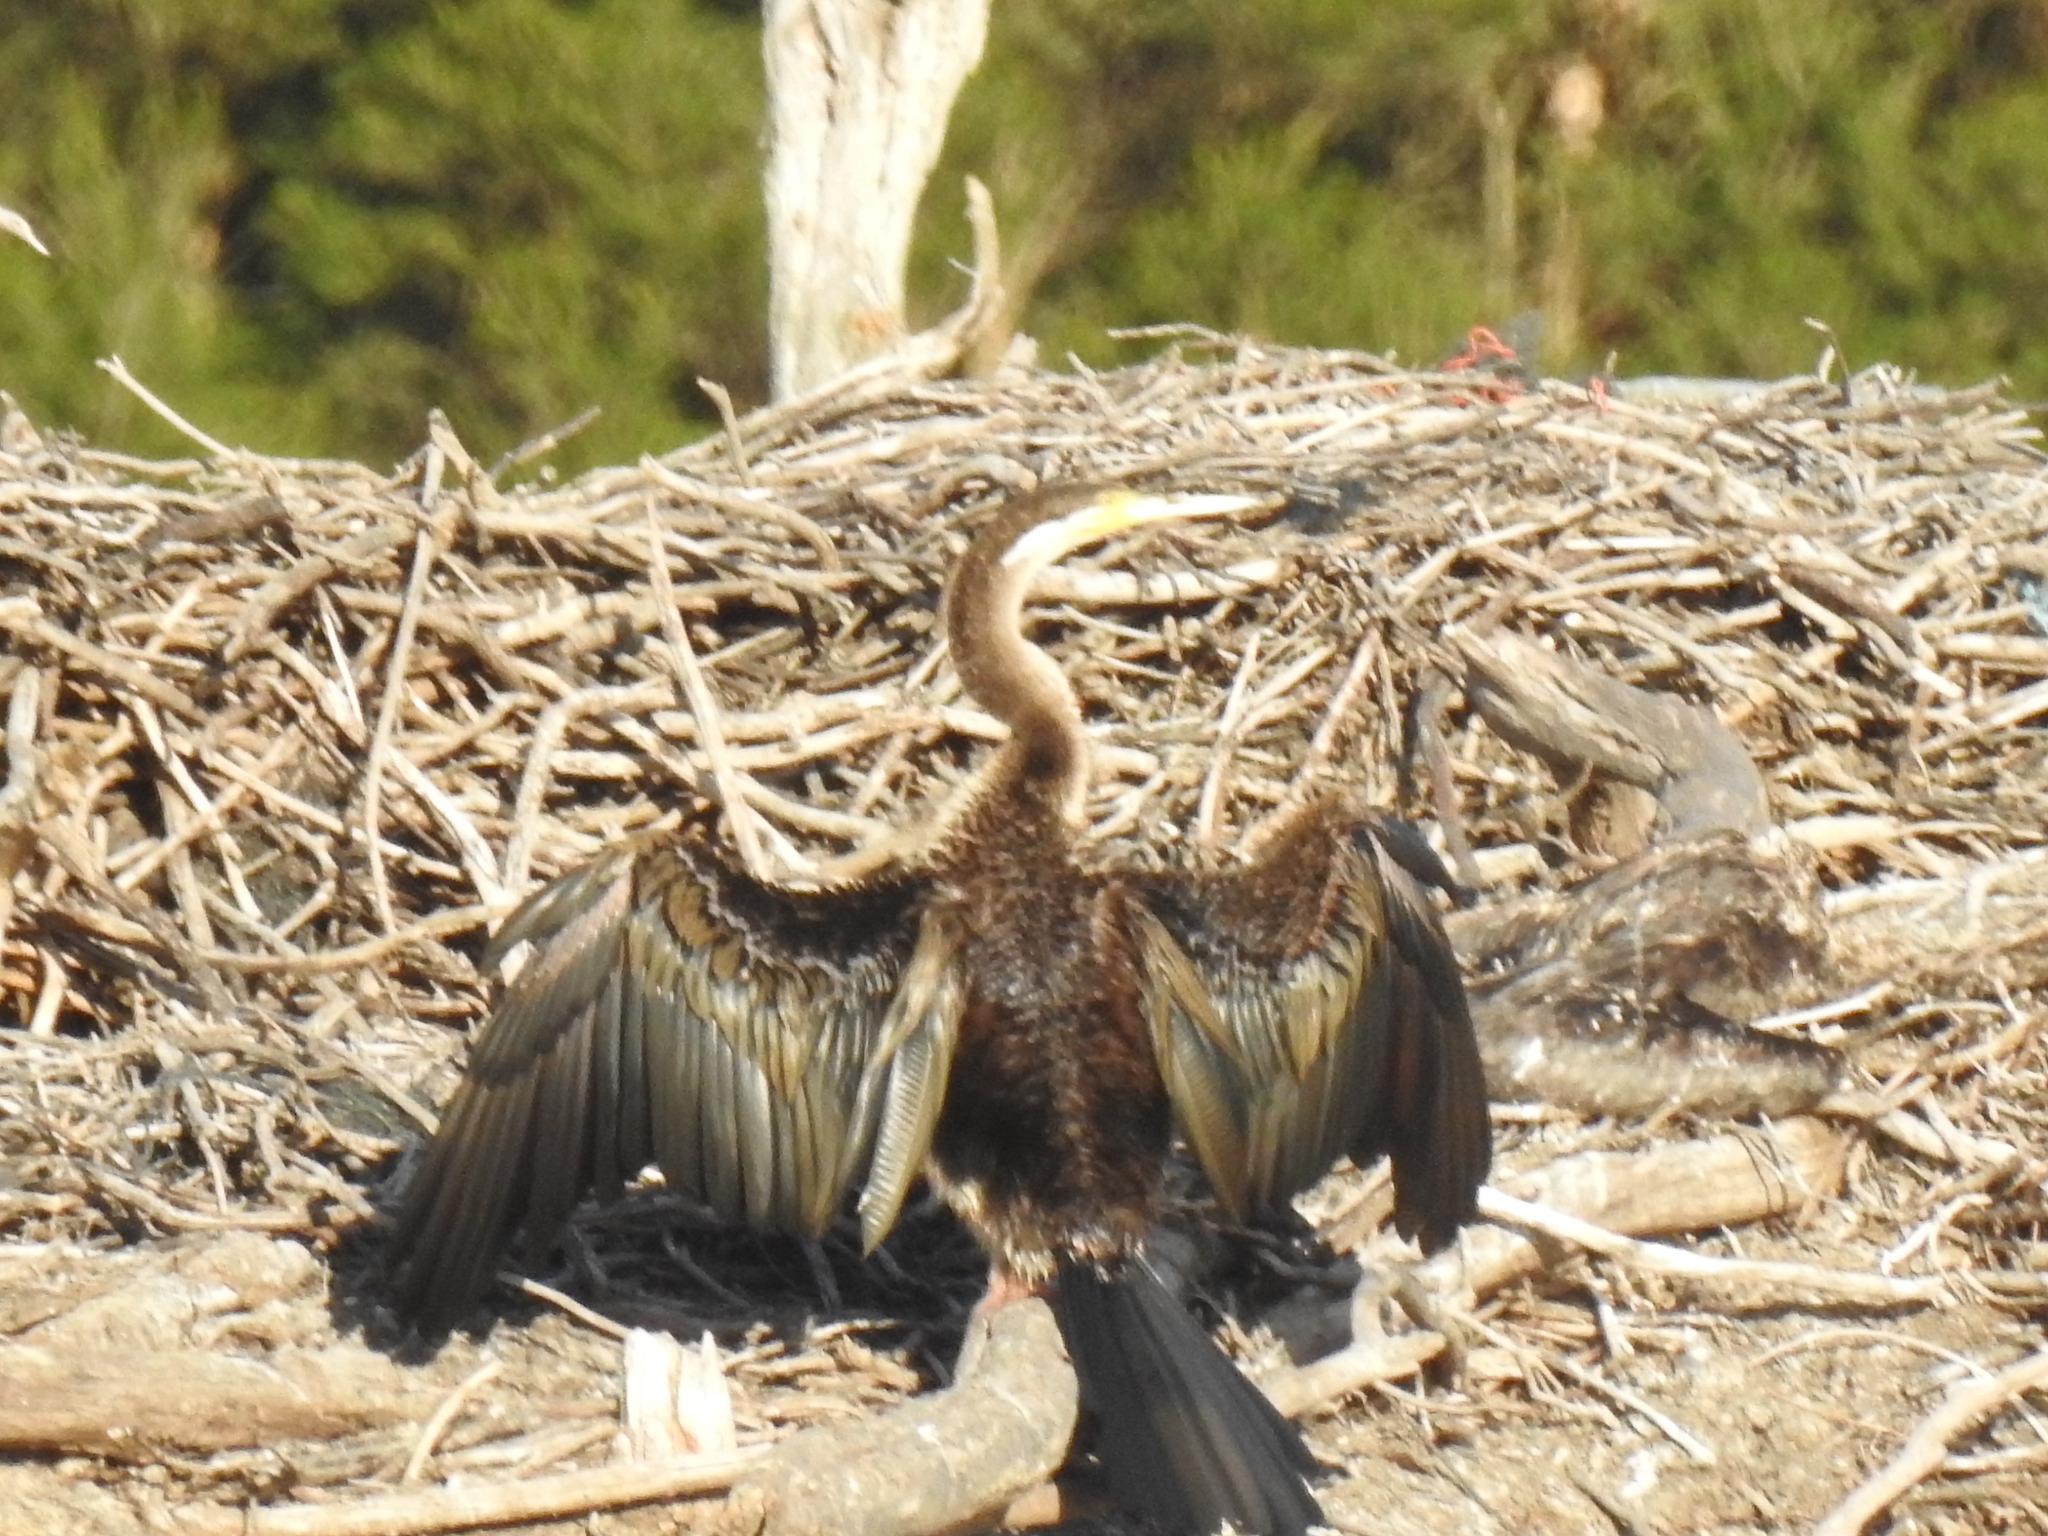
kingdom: Animalia
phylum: Chordata
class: Aves
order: Suliformes
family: Anhingidae
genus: Anhinga
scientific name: Anhinga novaehollandiae
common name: Australasian darter
